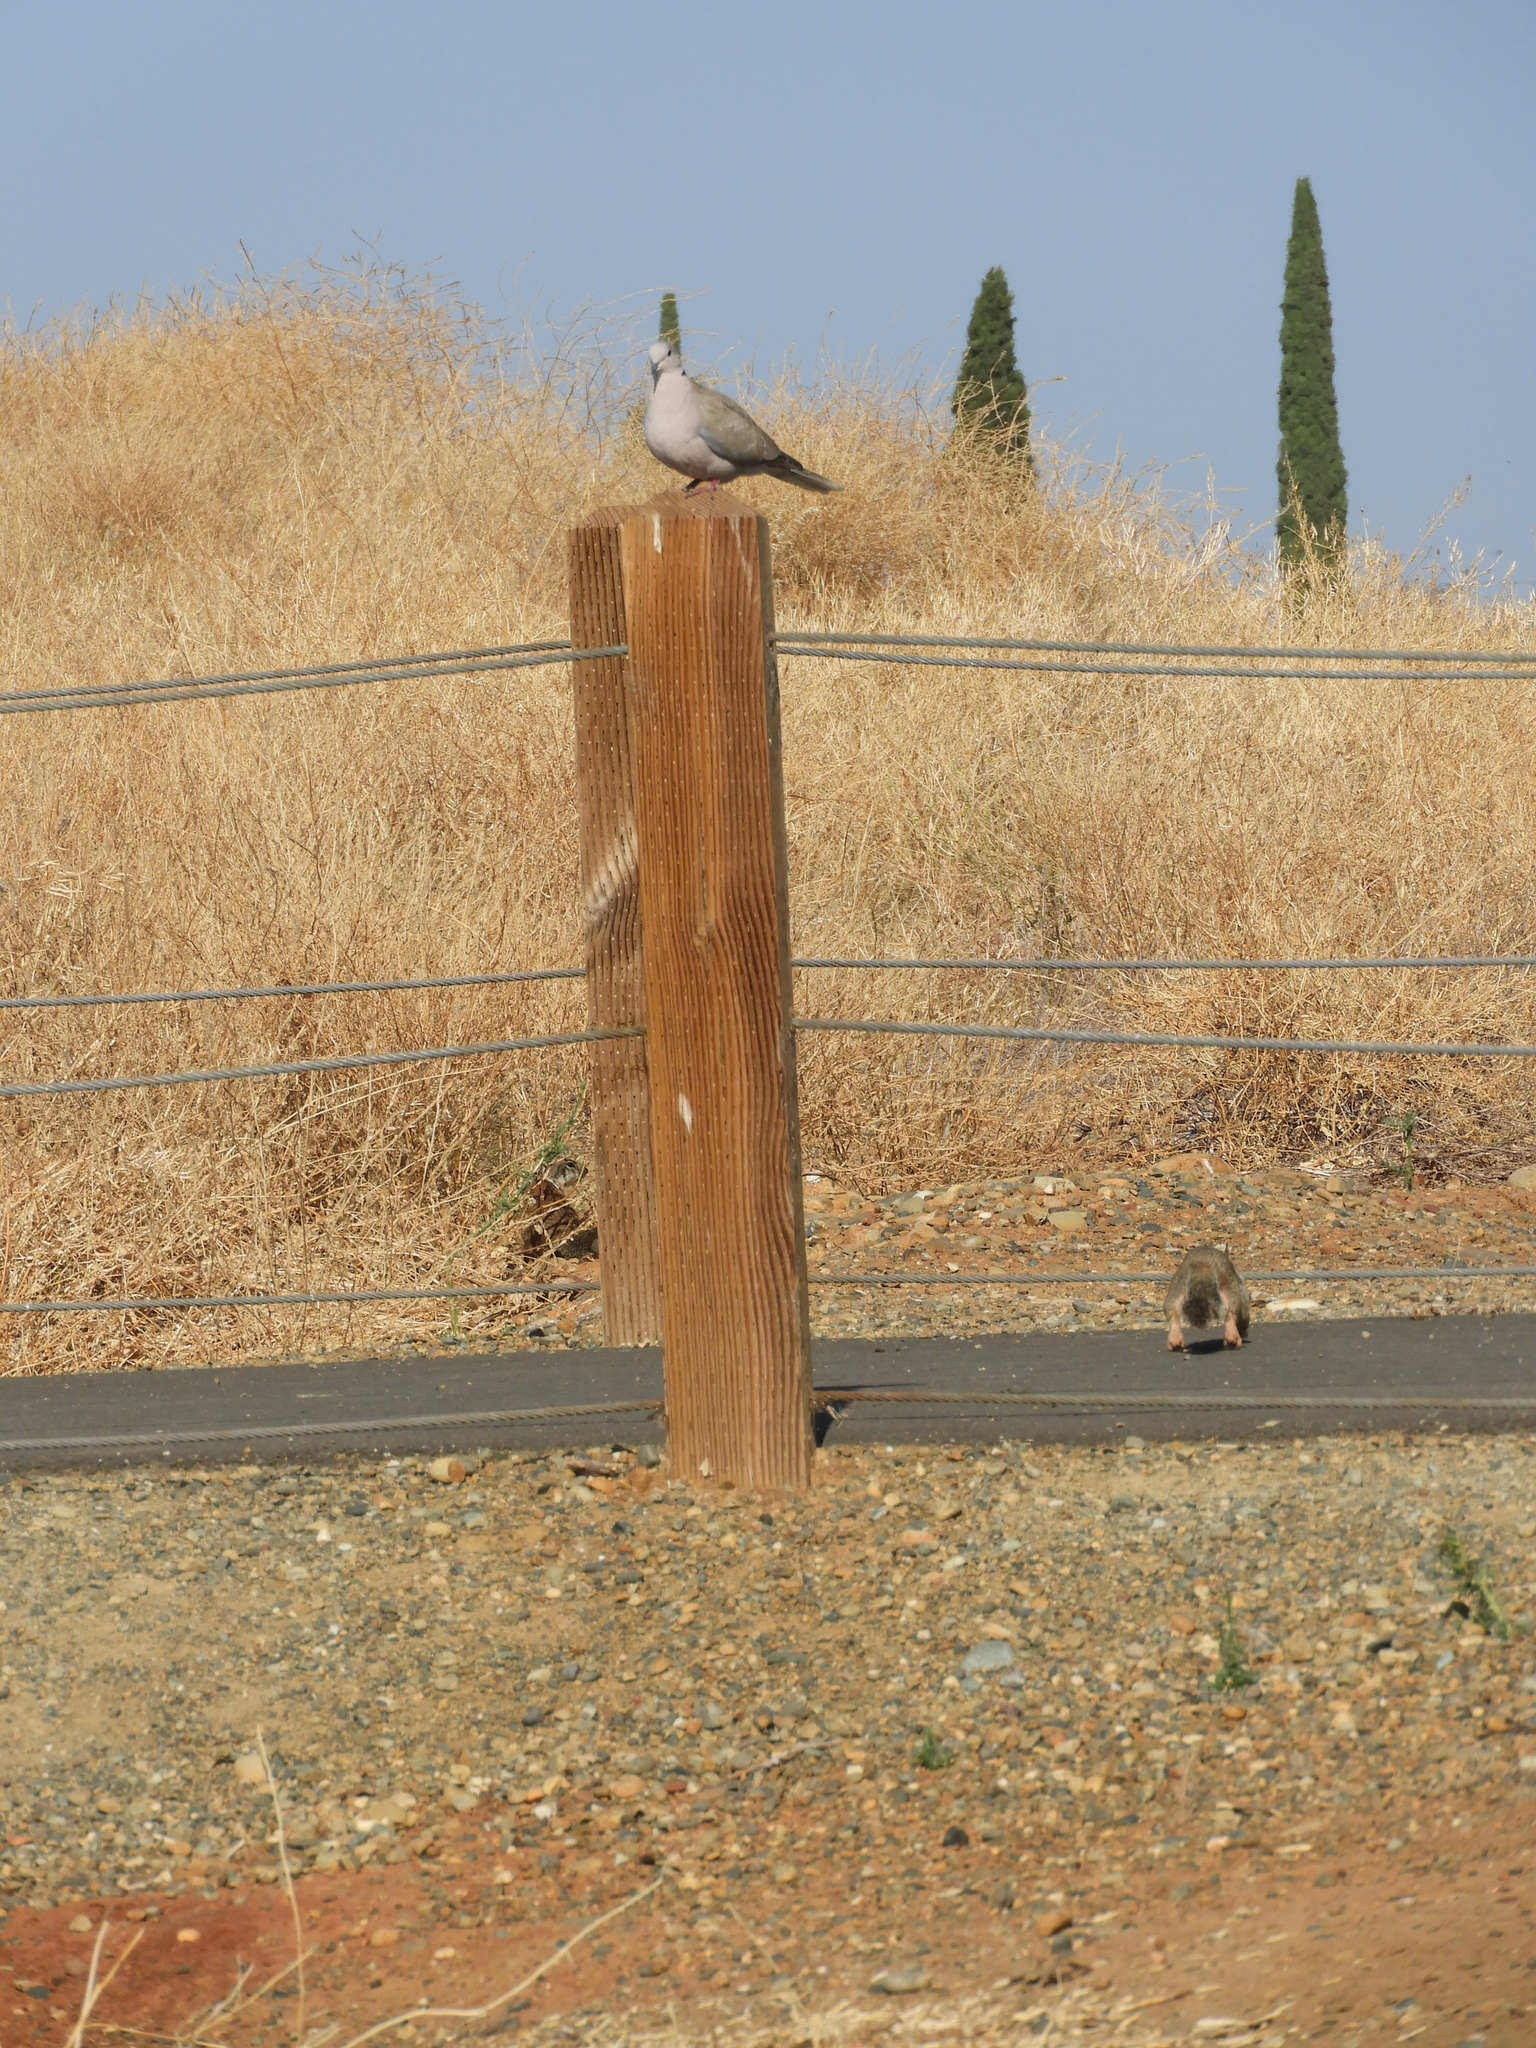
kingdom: Animalia
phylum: Chordata
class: Aves
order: Columbiformes
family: Columbidae
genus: Streptopelia
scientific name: Streptopelia decaocto
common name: Eurasian collared dove
